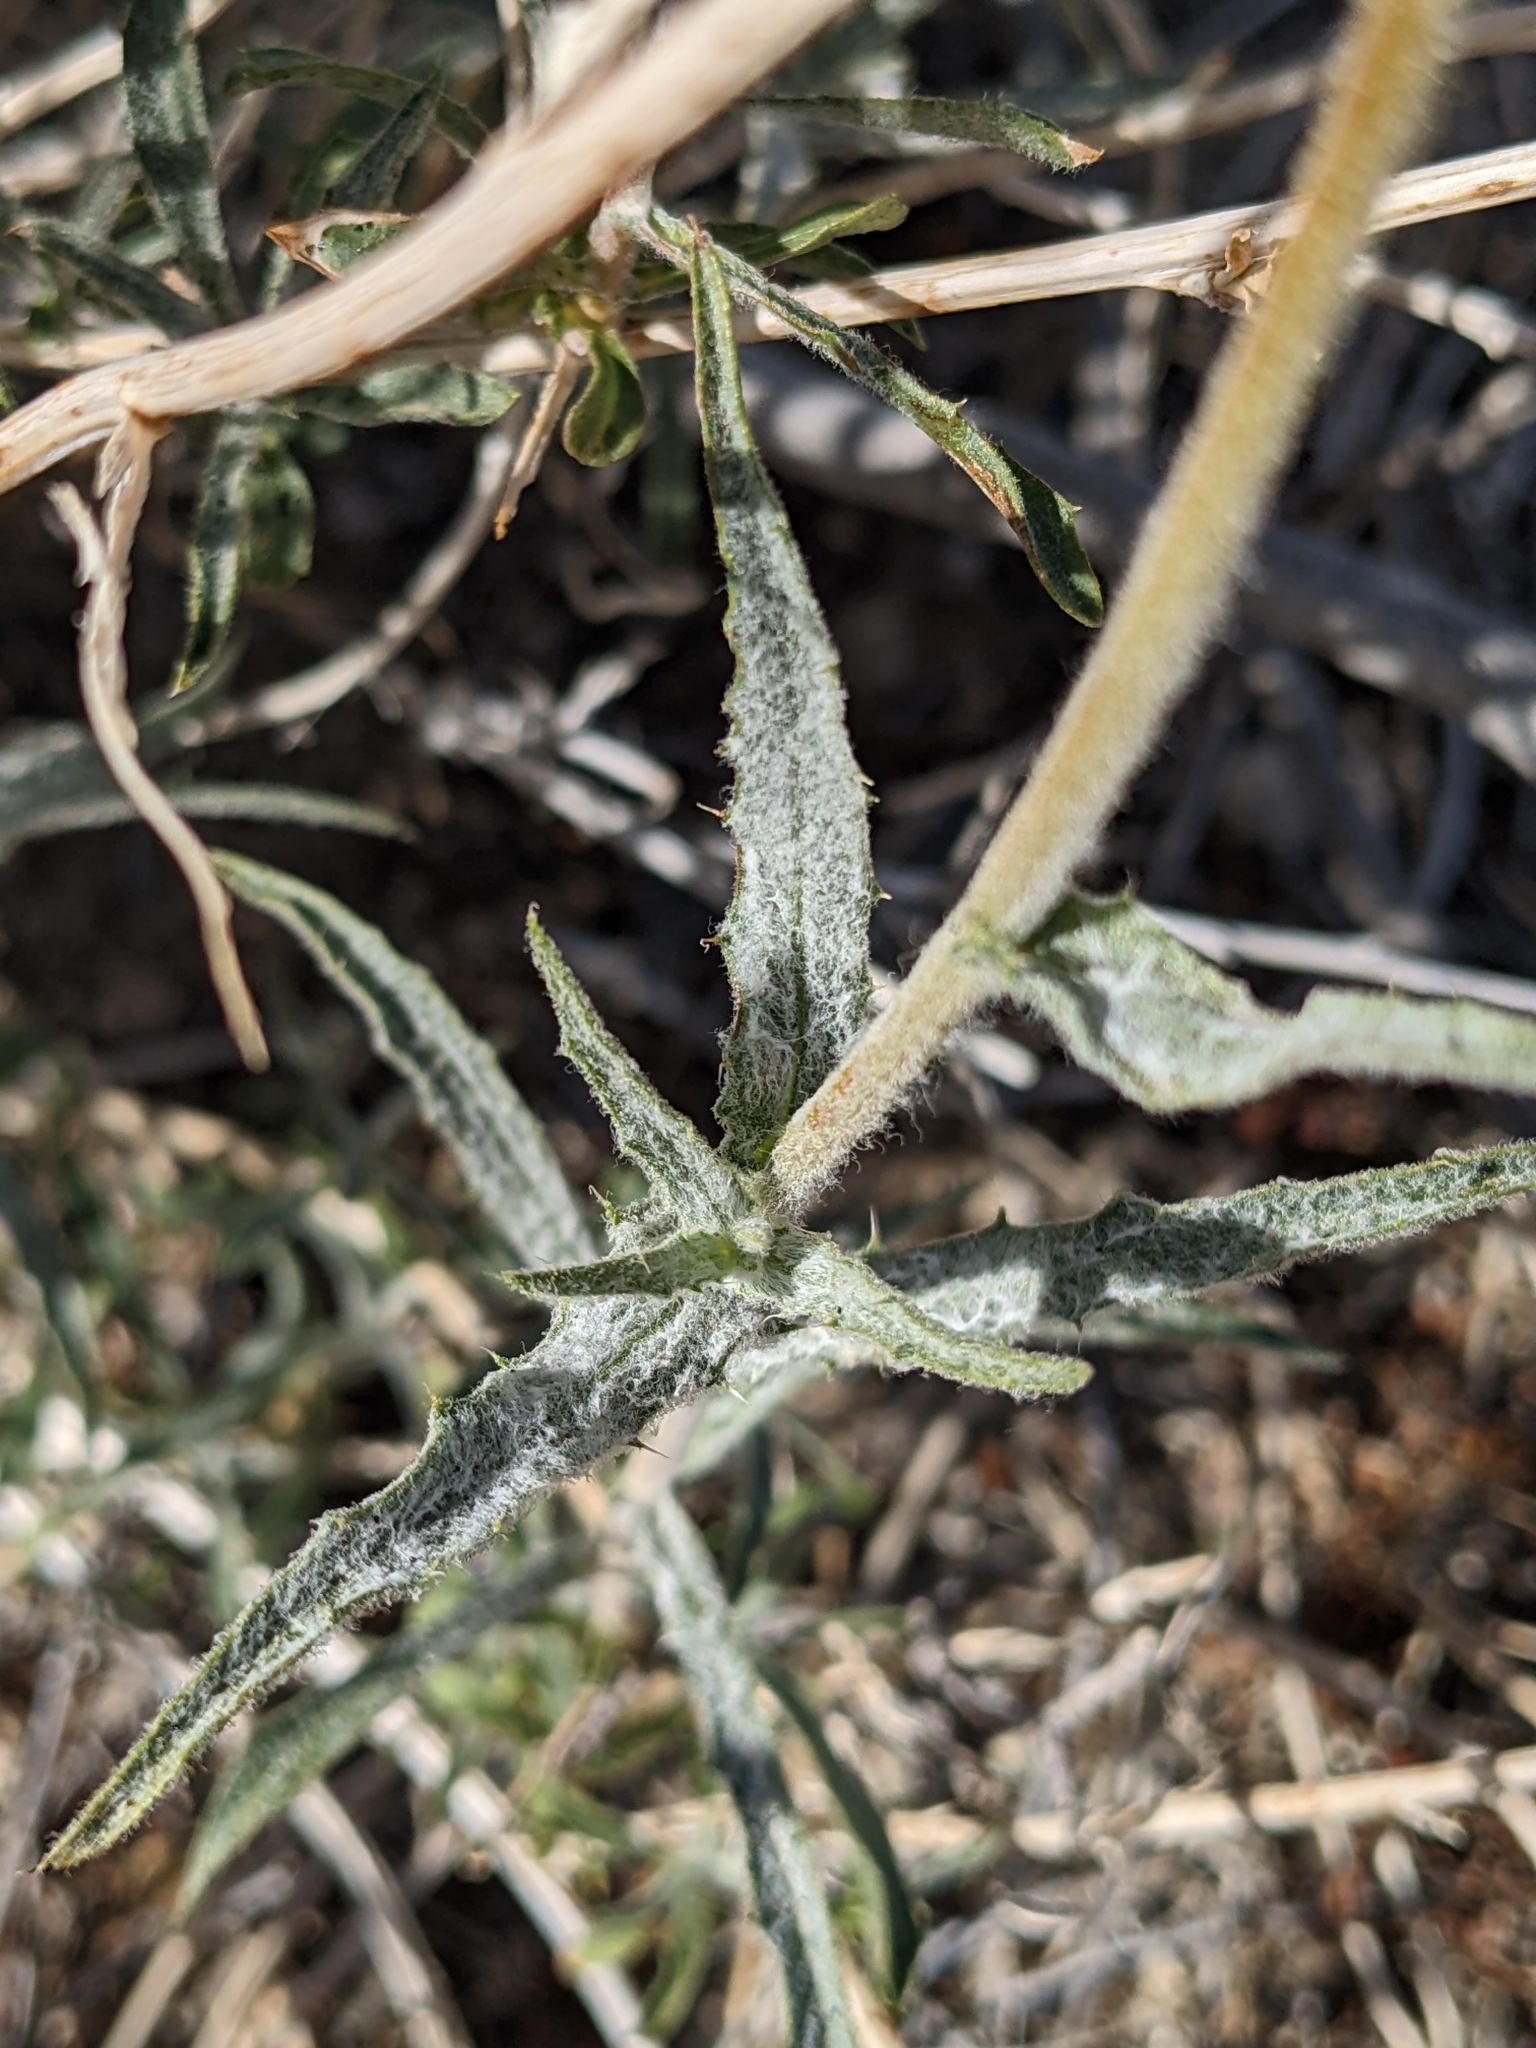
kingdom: Plantae
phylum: Tracheophyta
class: Magnoliopsida
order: Asterales
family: Asteraceae
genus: Xylorhiza
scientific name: Xylorhiza tortifolia
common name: Hurt-leaf woody-aster
